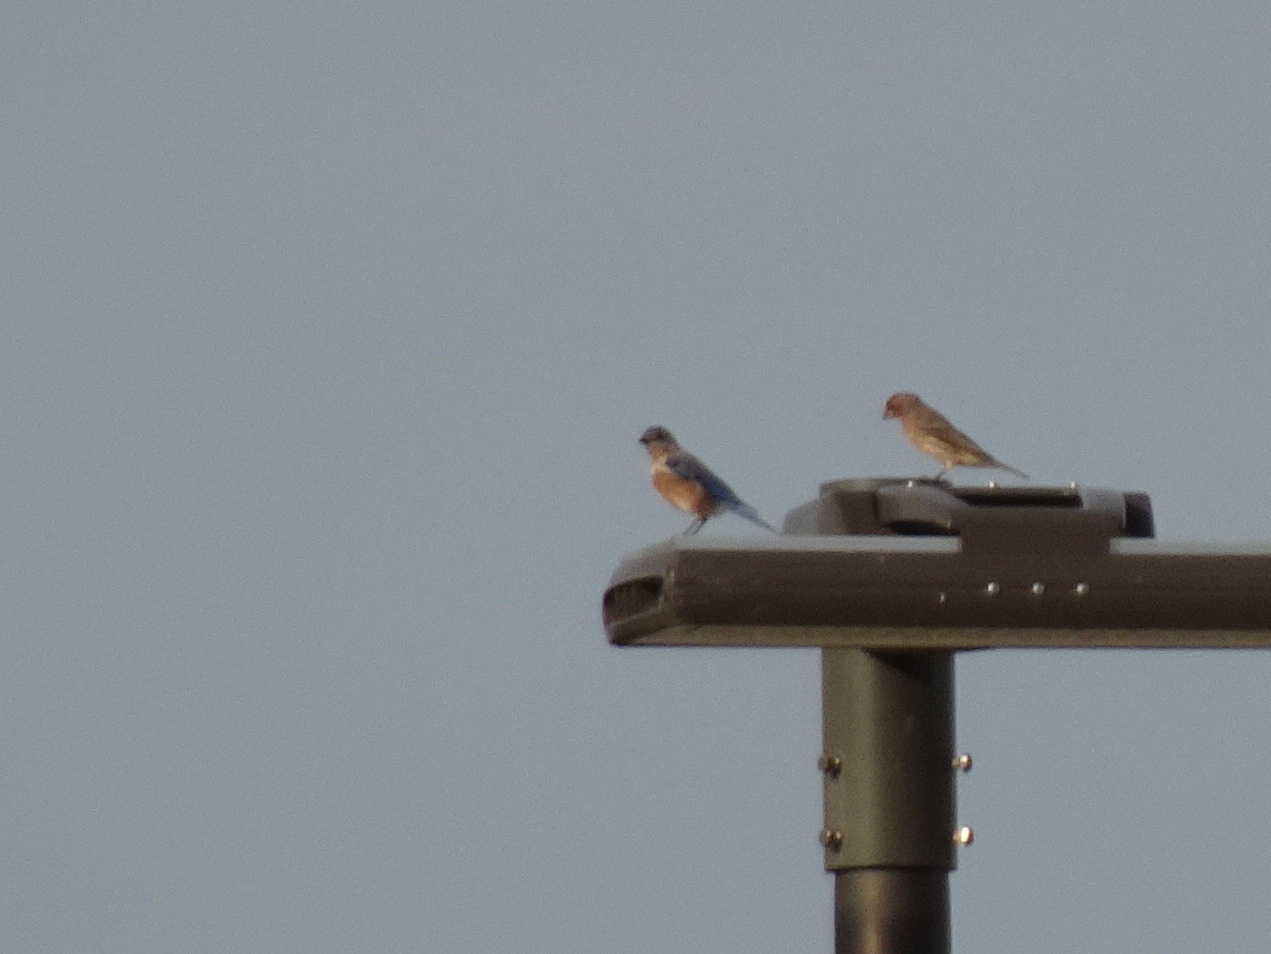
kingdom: Animalia
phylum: Chordata
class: Aves
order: Passeriformes
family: Turdidae
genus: Sialia
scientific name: Sialia sialis
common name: Eastern bluebird
